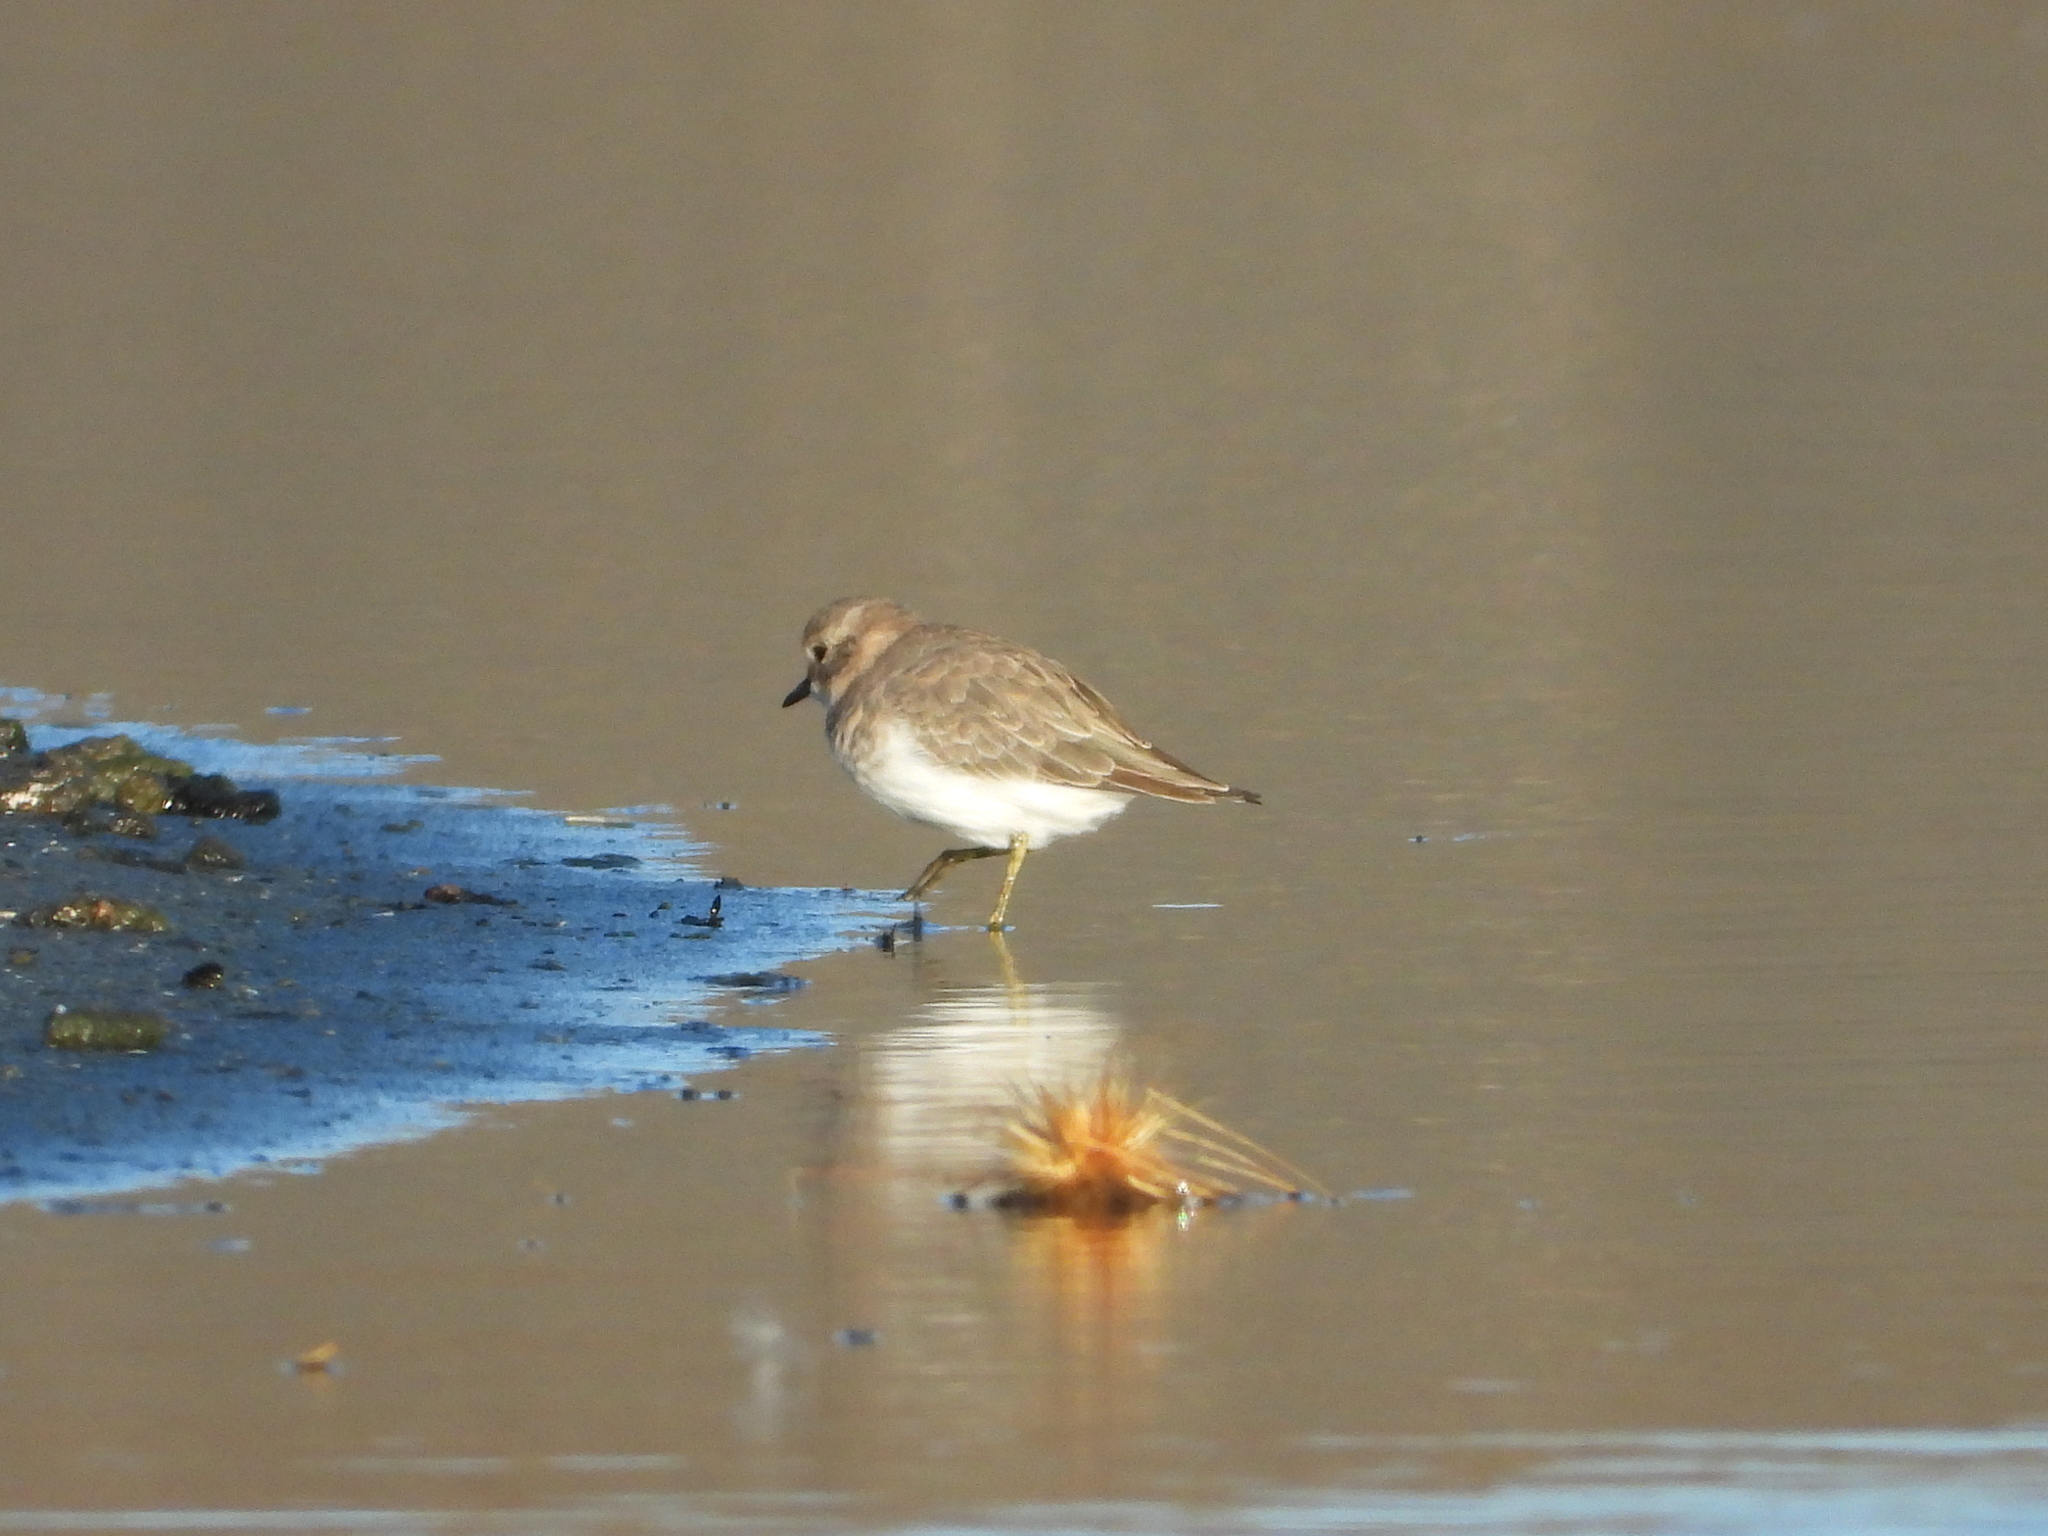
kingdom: Animalia
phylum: Chordata
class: Aves
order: Charadriiformes
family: Charadriidae
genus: Anarhynchus
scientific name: Anarhynchus
